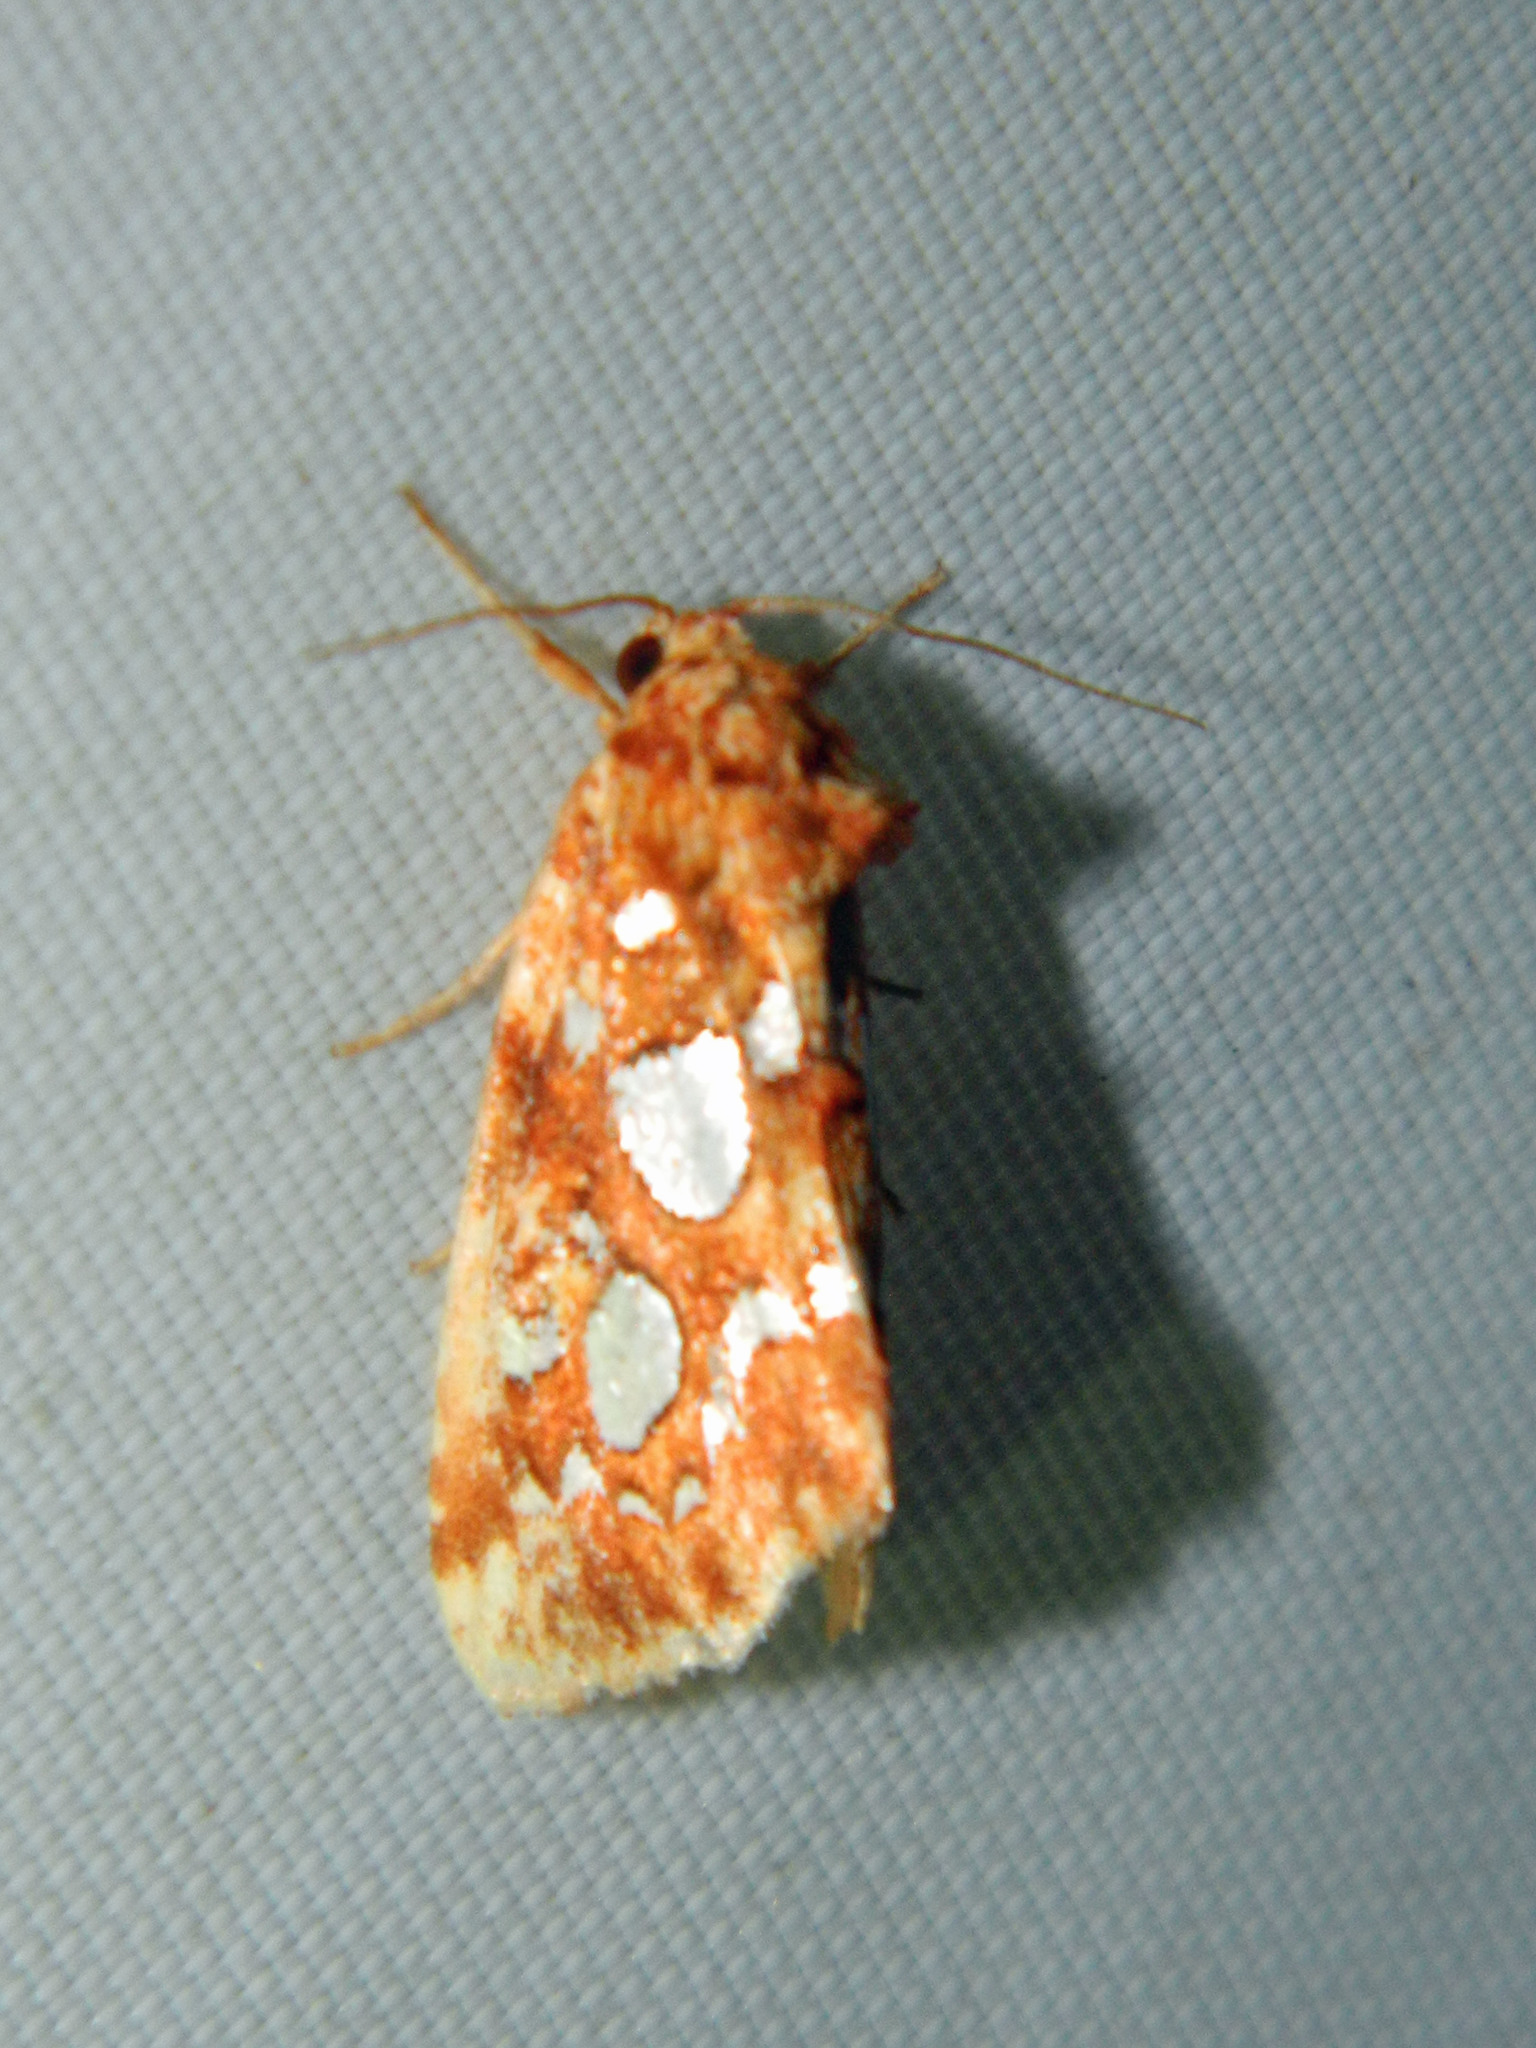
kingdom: Animalia
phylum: Arthropoda
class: Insecta
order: Lepidoptera
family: Noctuidae
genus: Callopistria
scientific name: Callopistria cordata
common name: Silver-spotted fern moth
